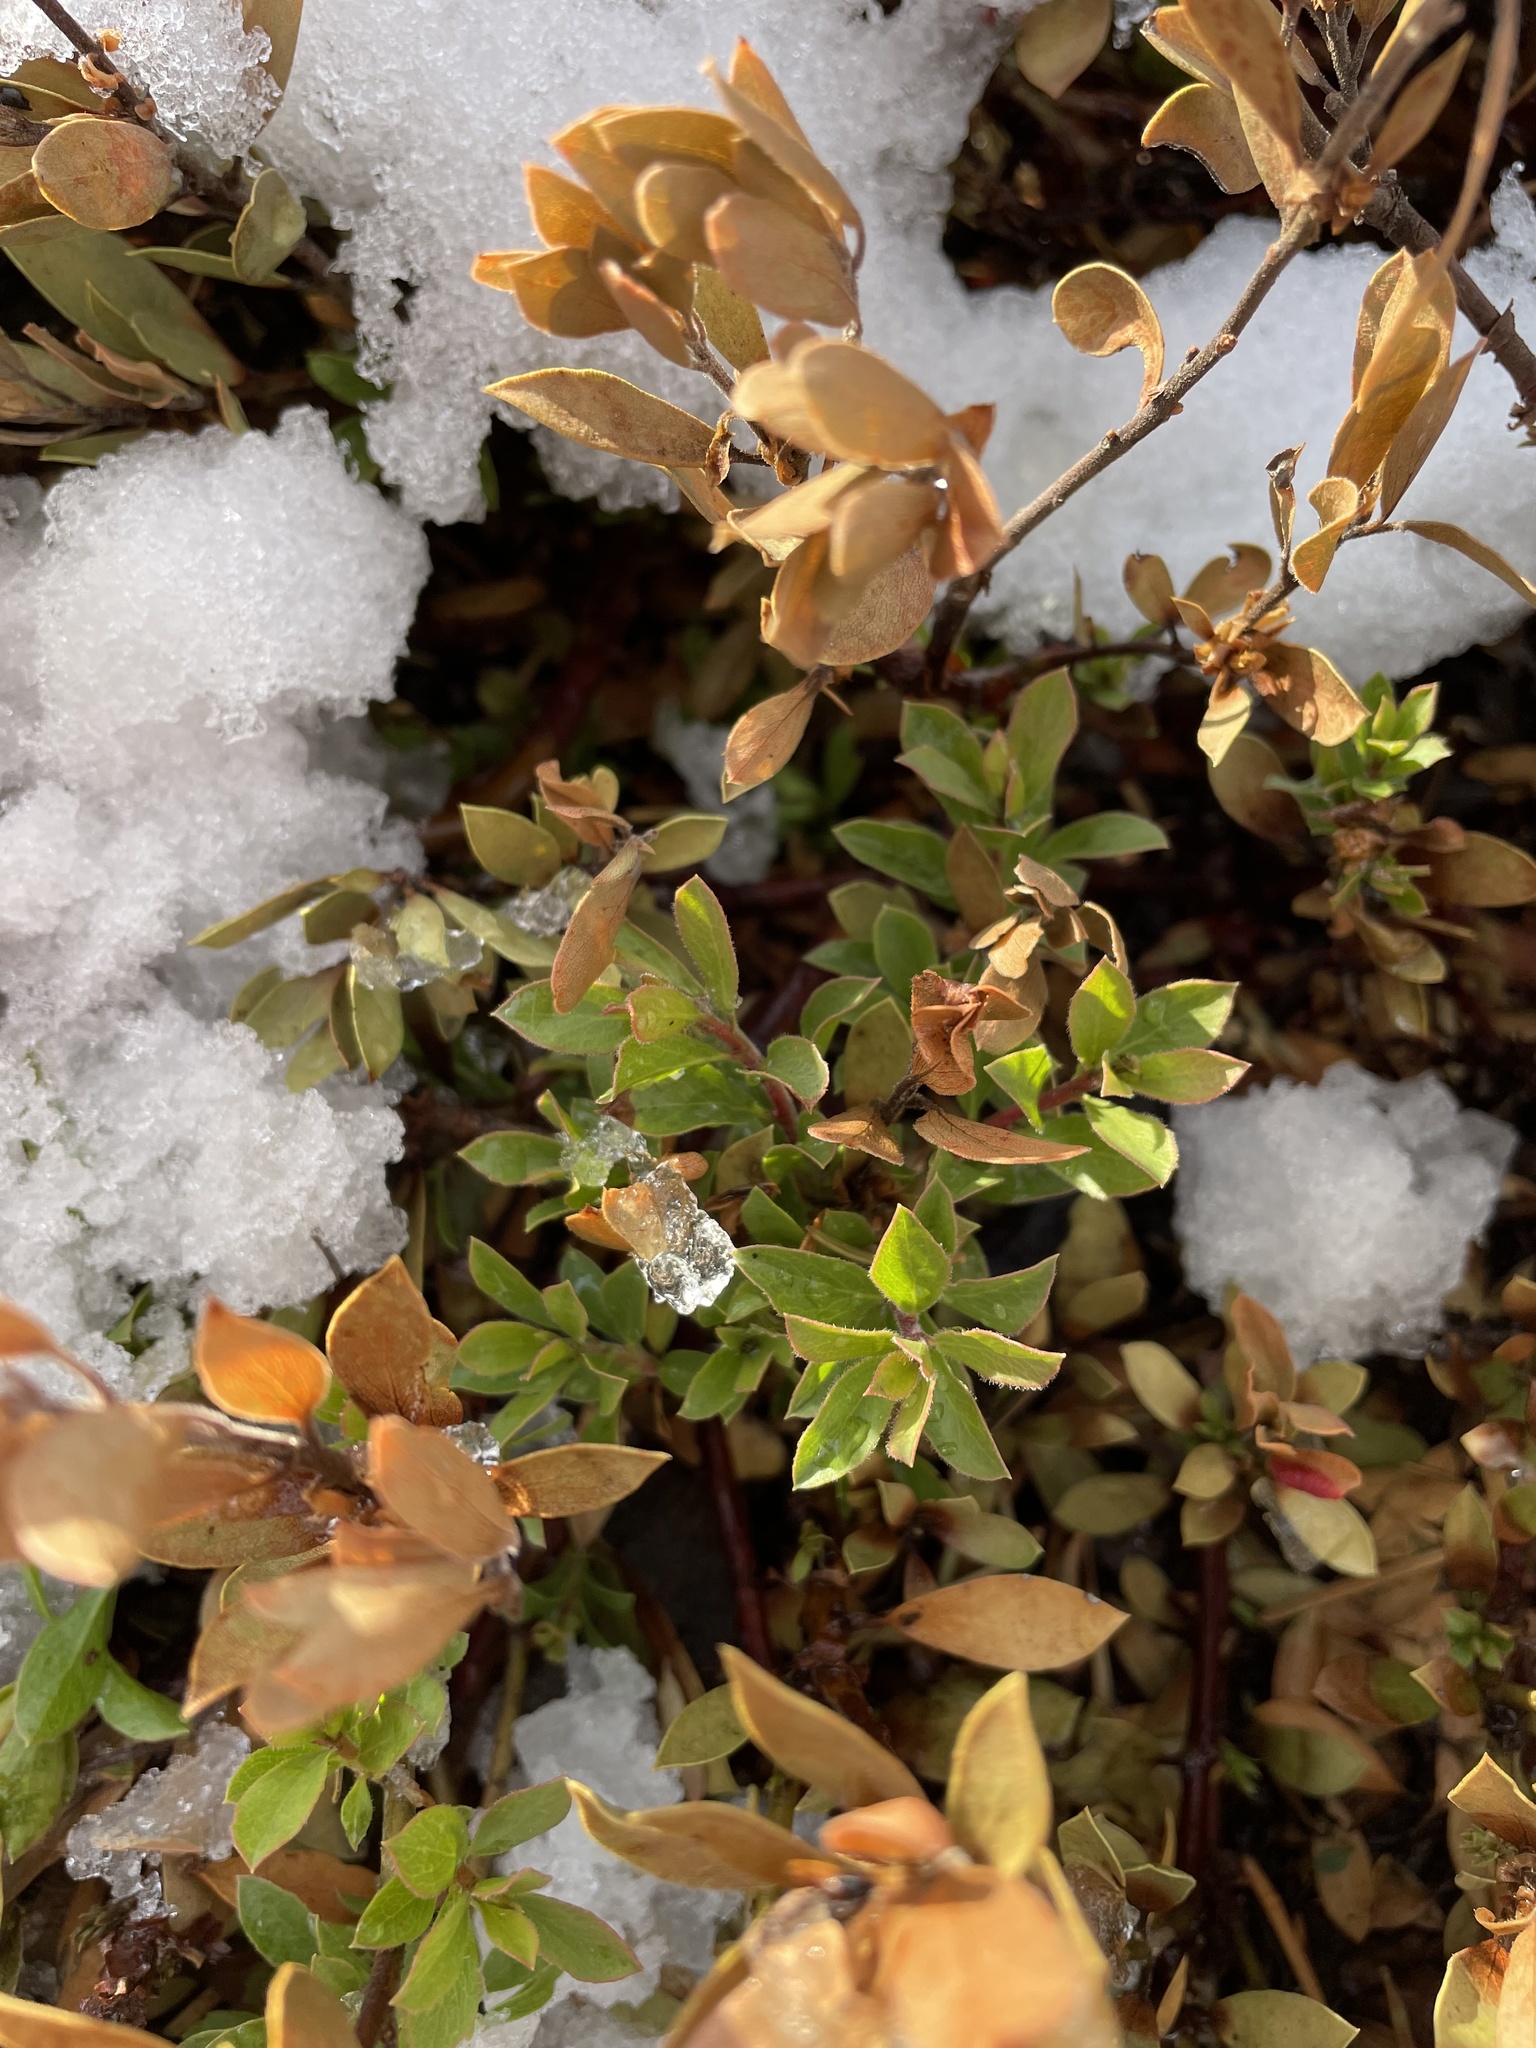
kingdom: Plantae
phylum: Tracheophyta
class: Magnoliopsida
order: Ericales
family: Ericaceae
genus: Arctostaphylos
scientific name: Arctostaphylos nevadensis
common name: Pinemat manzanita
